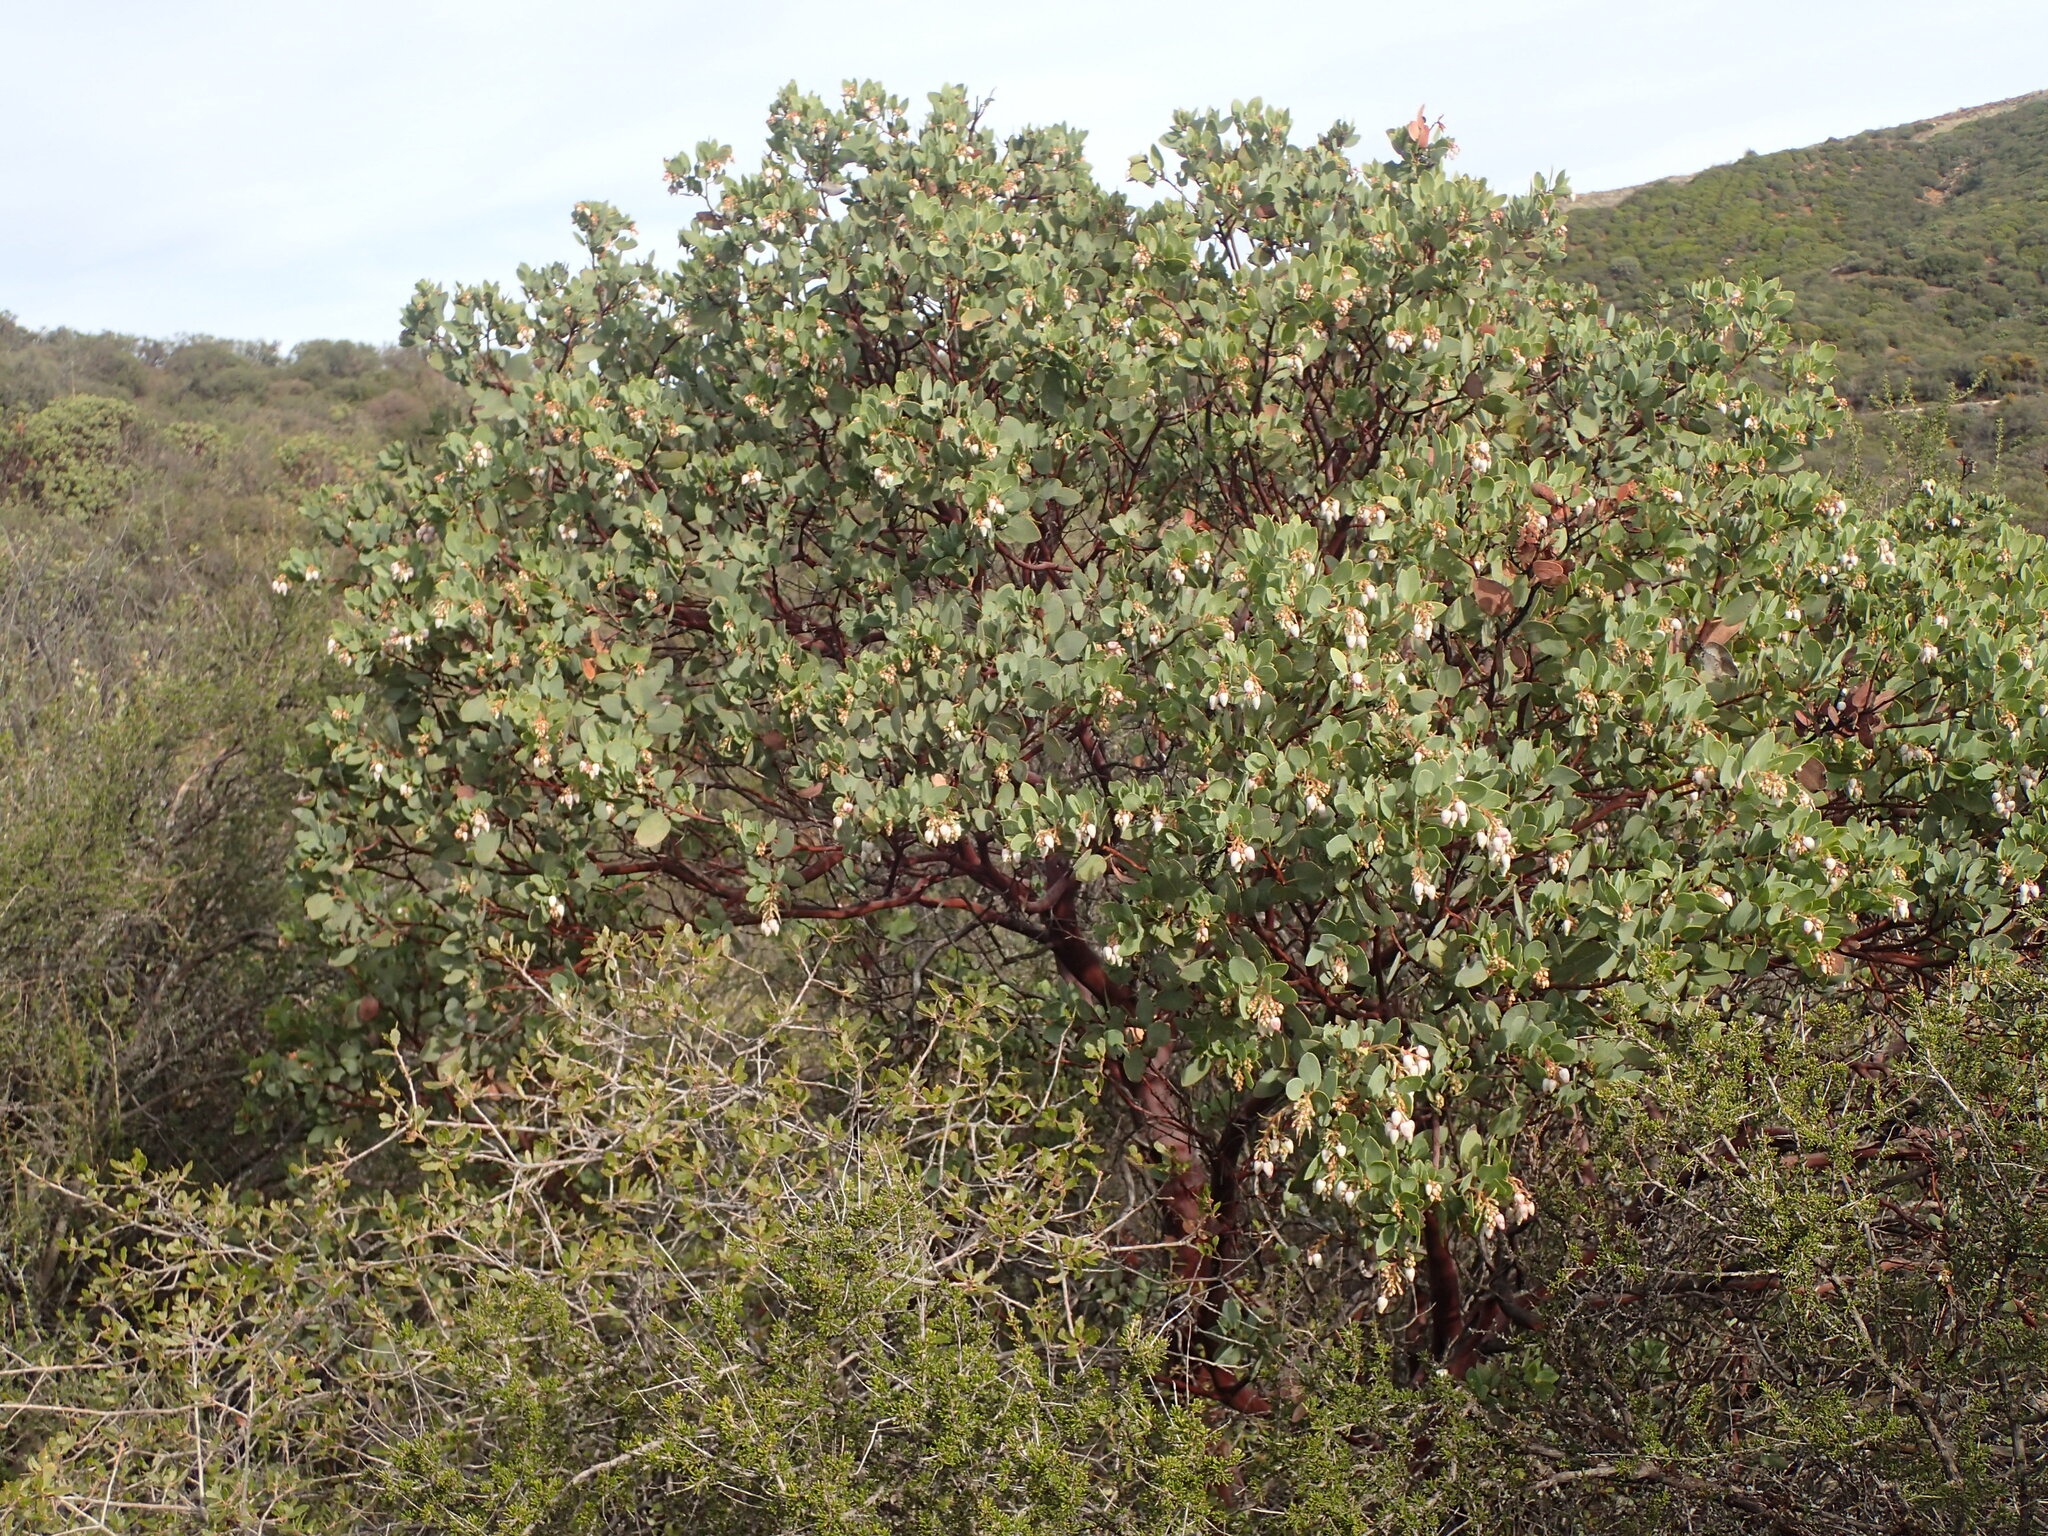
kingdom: Plantae
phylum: Tracheophyta
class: Magnoliopsida
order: Ericales
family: Ericaceae
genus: Arctostaphylos
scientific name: Arctostaphylos glauca
